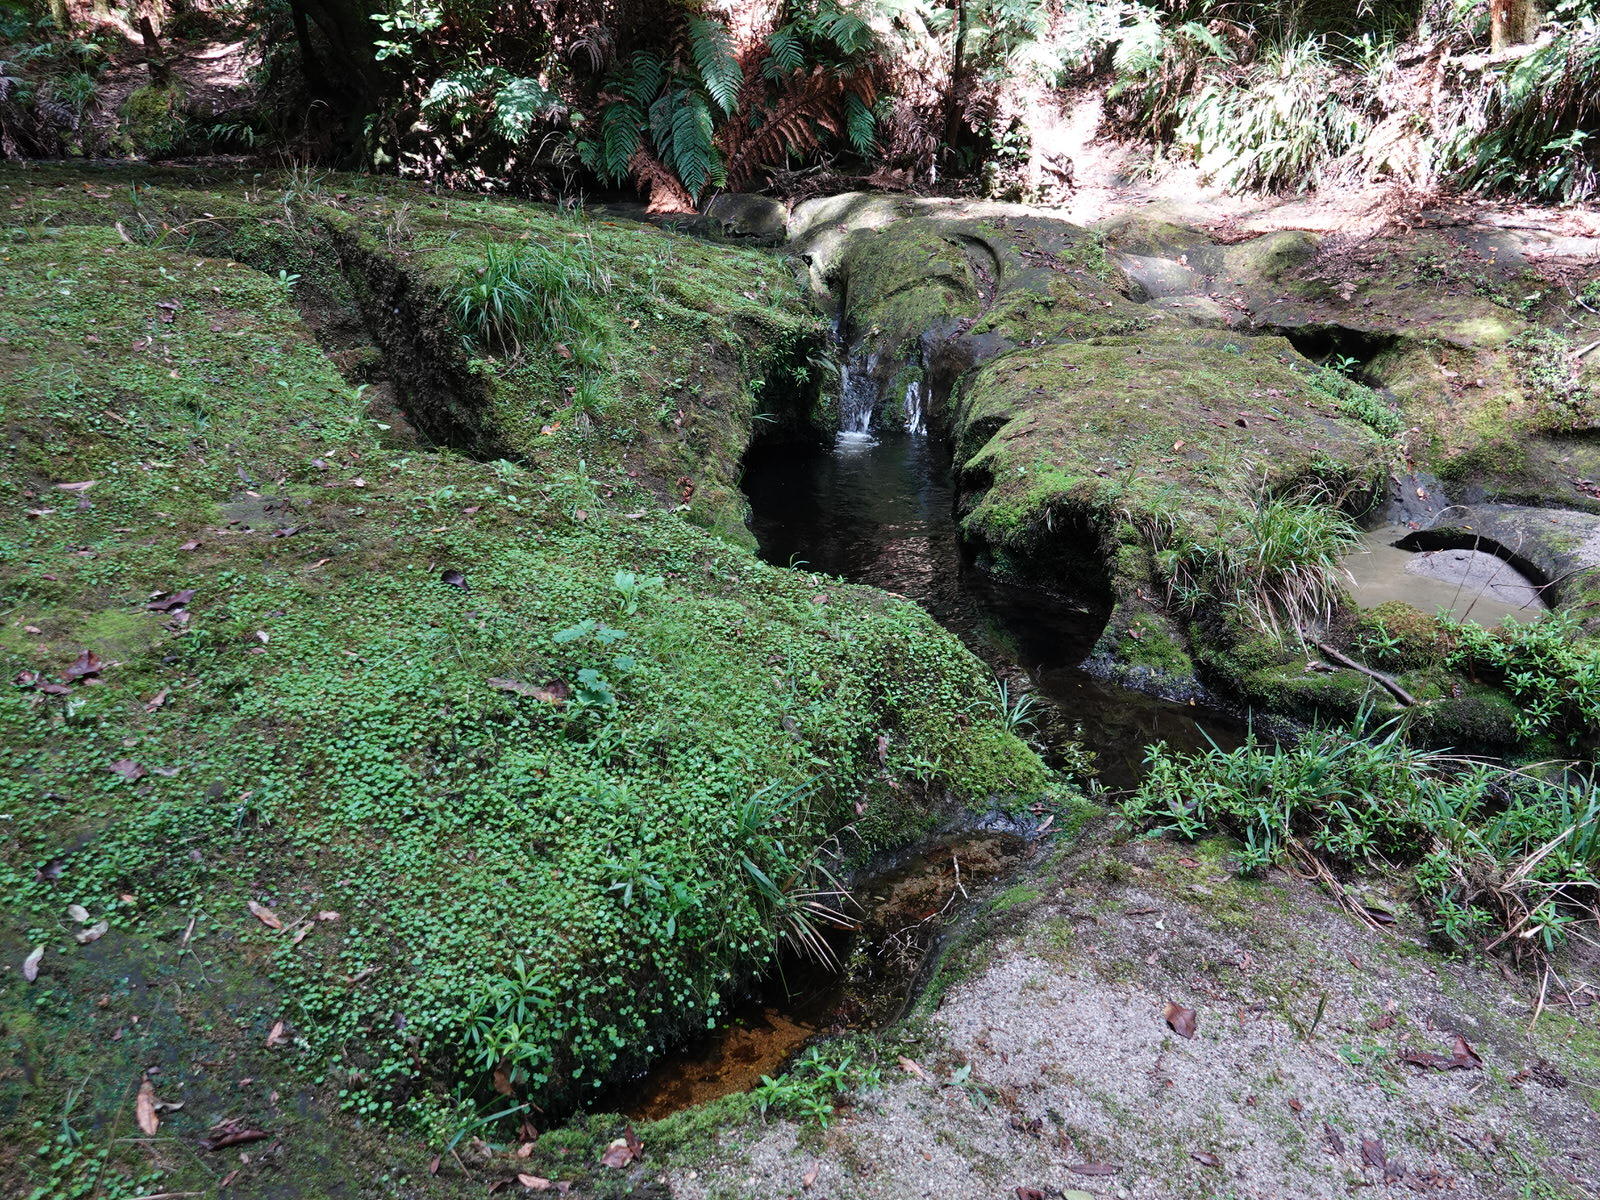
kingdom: Plantae
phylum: Tracheophyta
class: Magnoliopsida
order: Apiales
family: Araliaceae
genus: Hydrocotyle
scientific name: Hydrocotyle heteromeria
